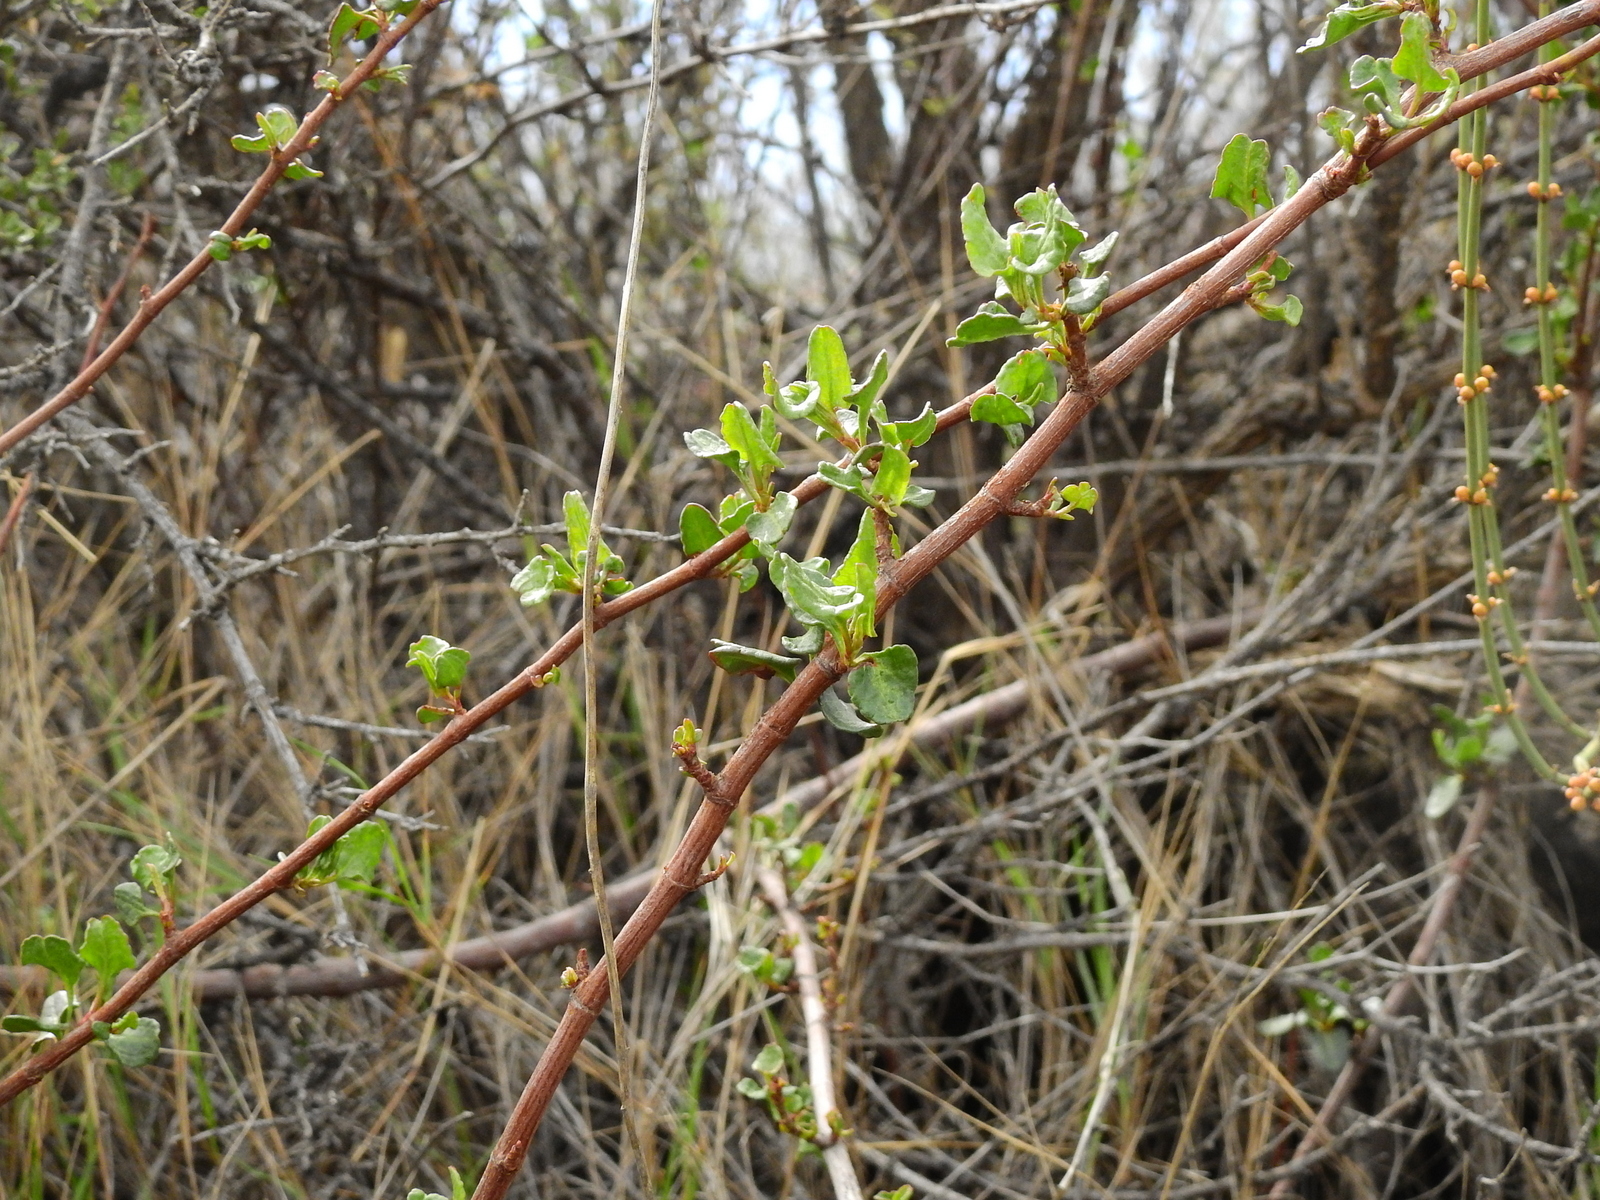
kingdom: Plantae
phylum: Tracheophyta
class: Magnoliopsida
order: Caryophyllales
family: Polygonaceae
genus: Muehlenbeckia
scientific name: Muehlenbeckia hastulata
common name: Wirevine
